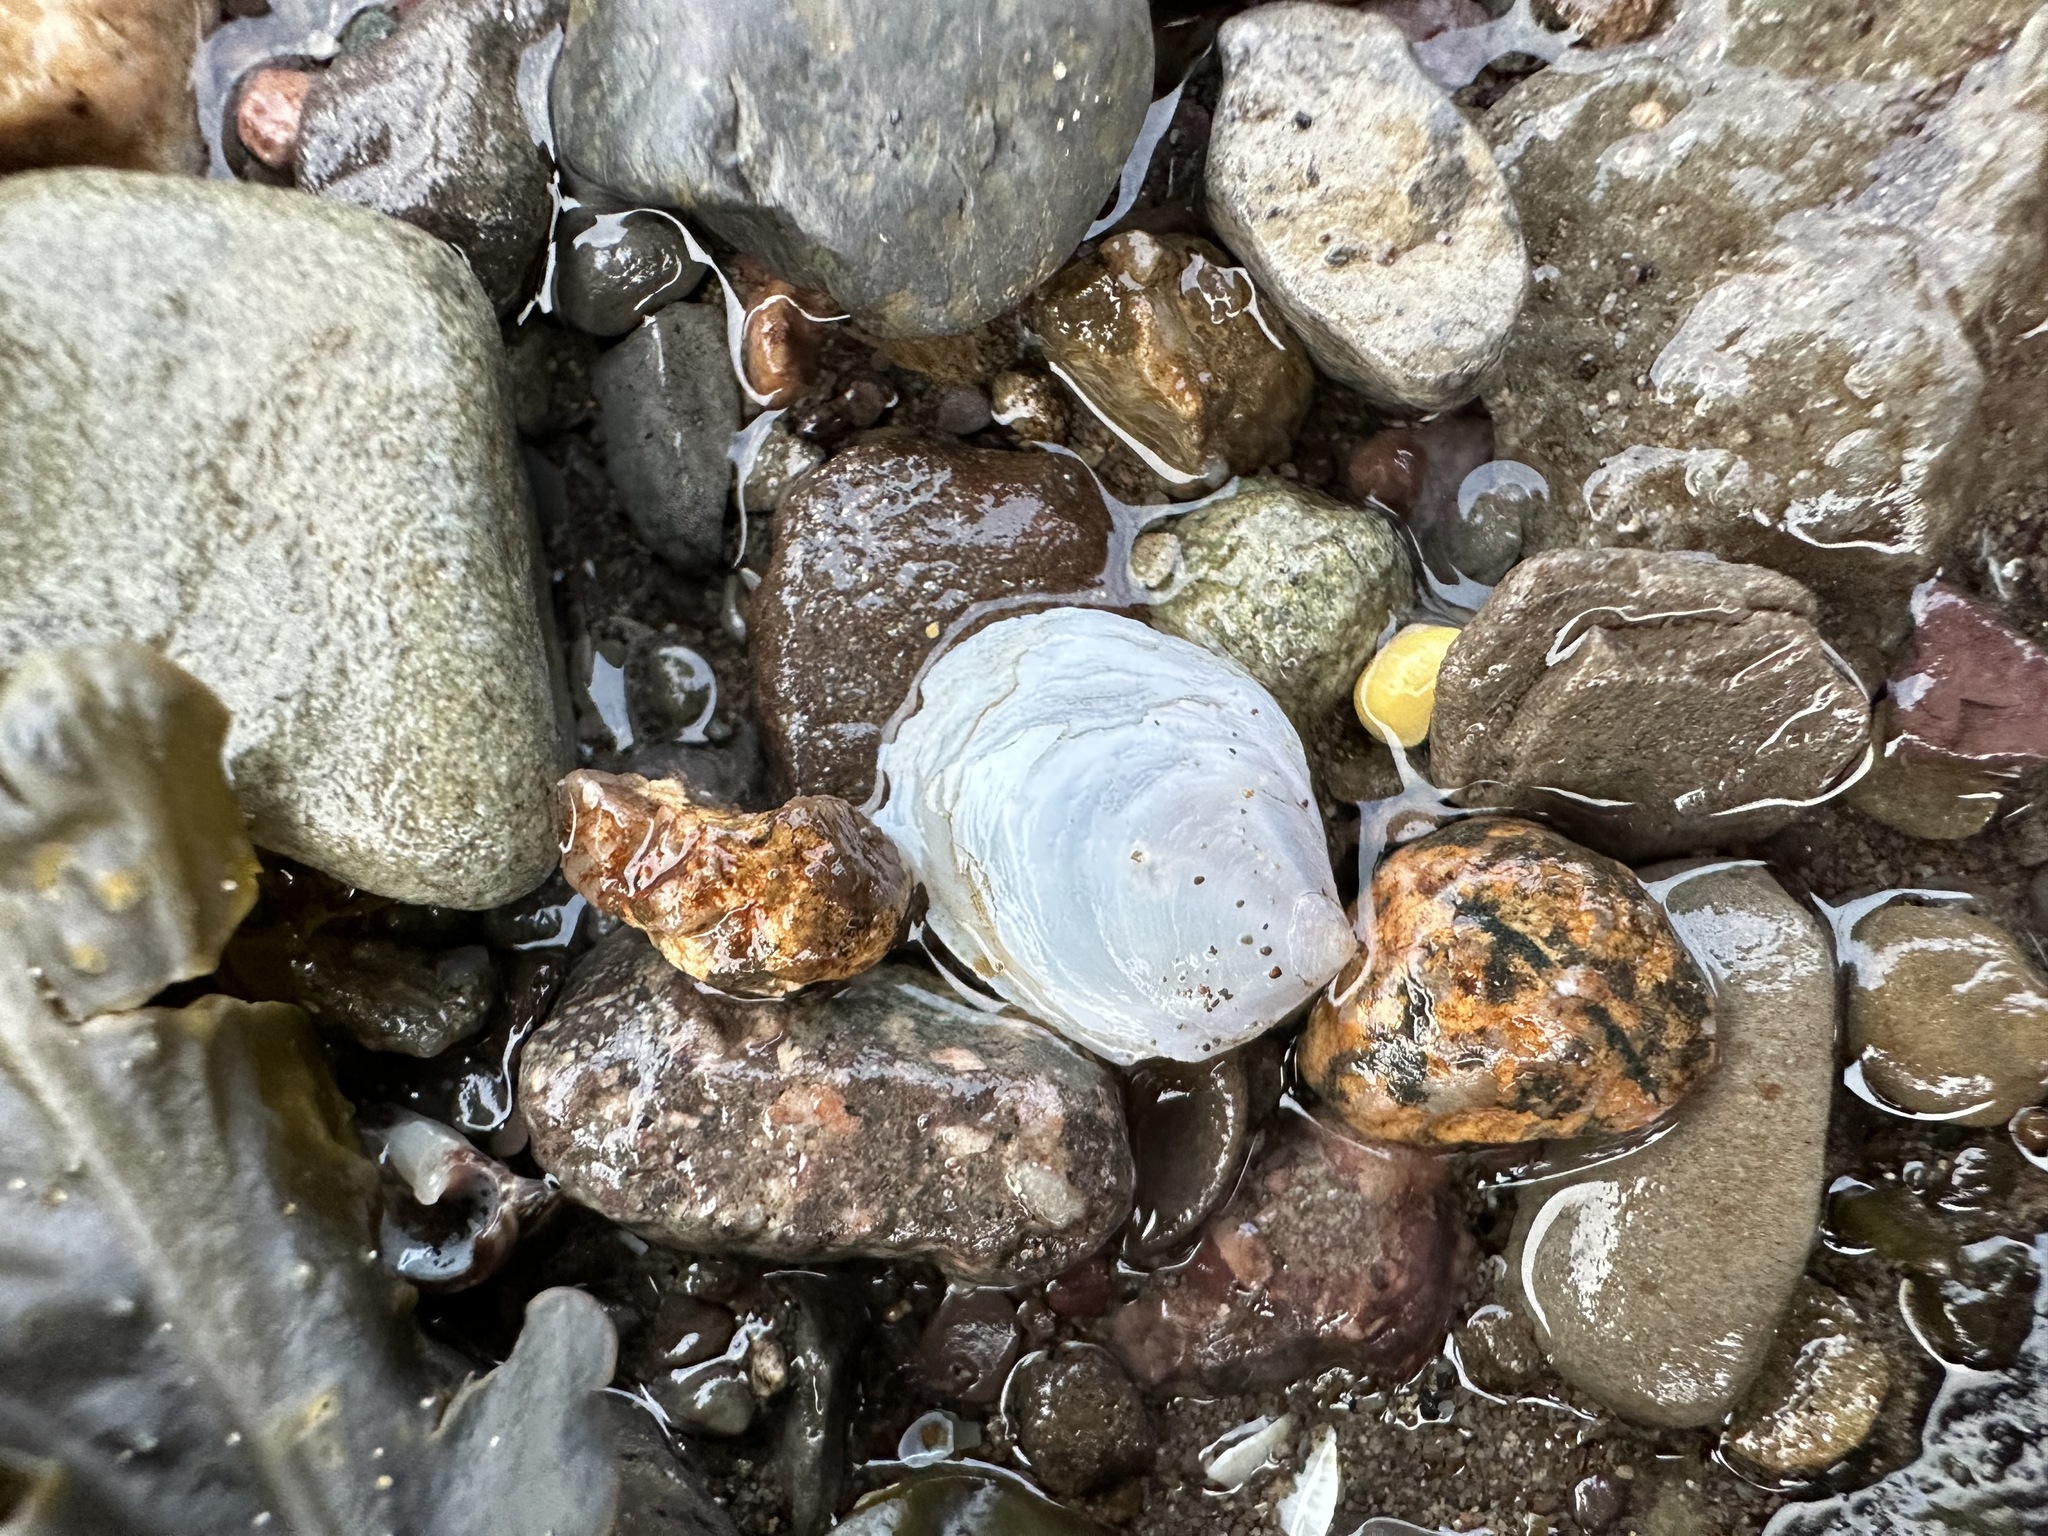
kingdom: Animalia
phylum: Mollusca
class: Gastropoda
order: Littorinimorpha
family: Calyptraeidae
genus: Crepidula
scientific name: Crepidula plana
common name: Eastern white slippersnail
